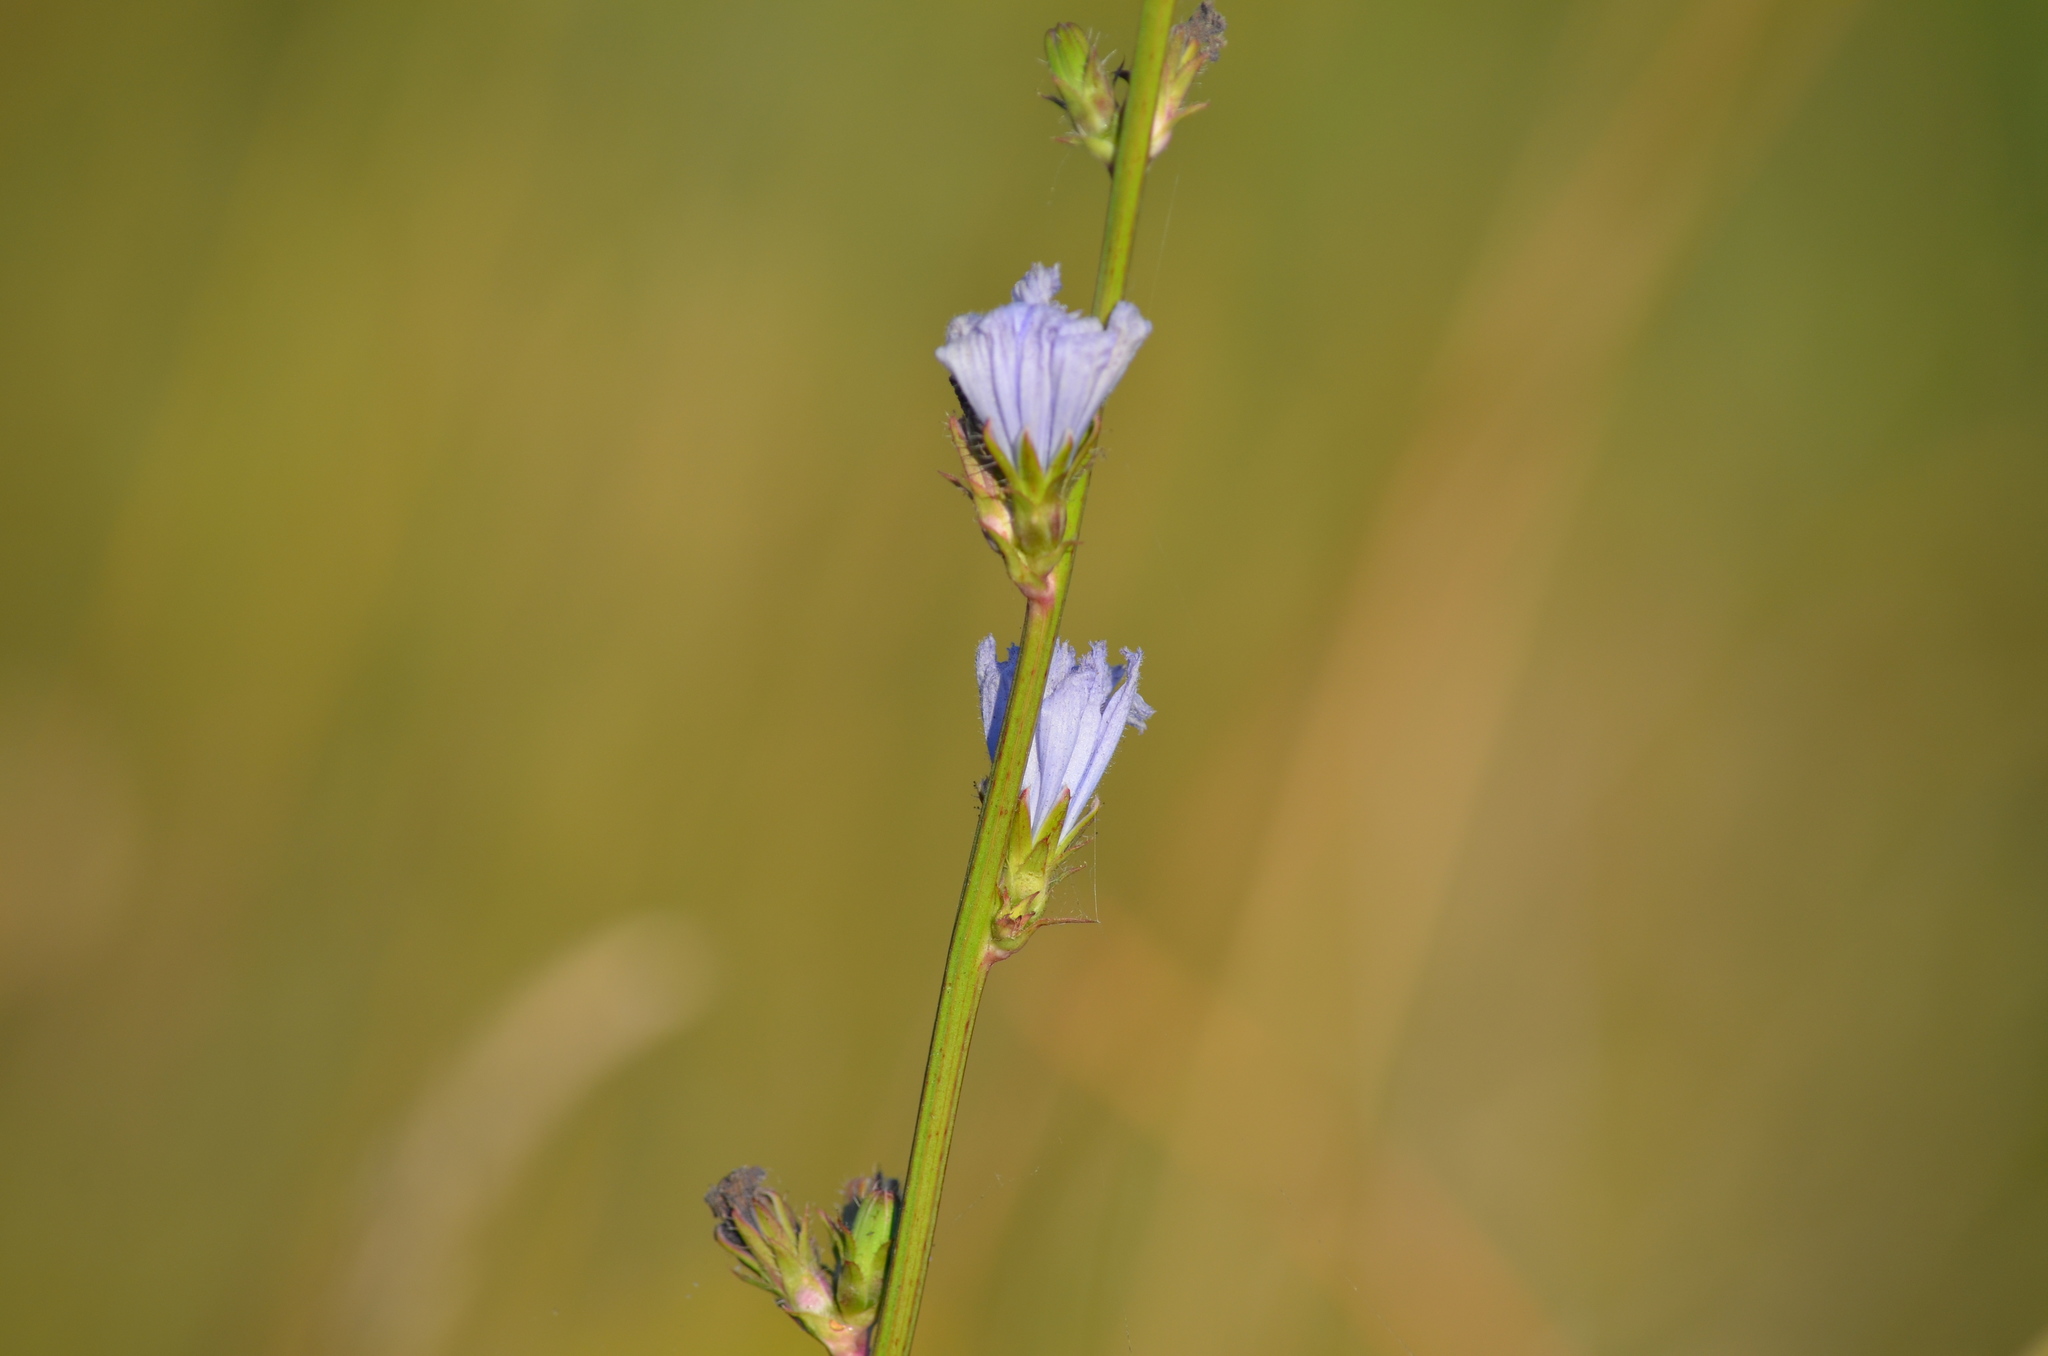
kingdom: Plantae
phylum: Tracheophyta
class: Magnoliopsida
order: Asterales
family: Asteraceae
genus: Cichorium
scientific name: Cichorium intybus
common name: Chicory
